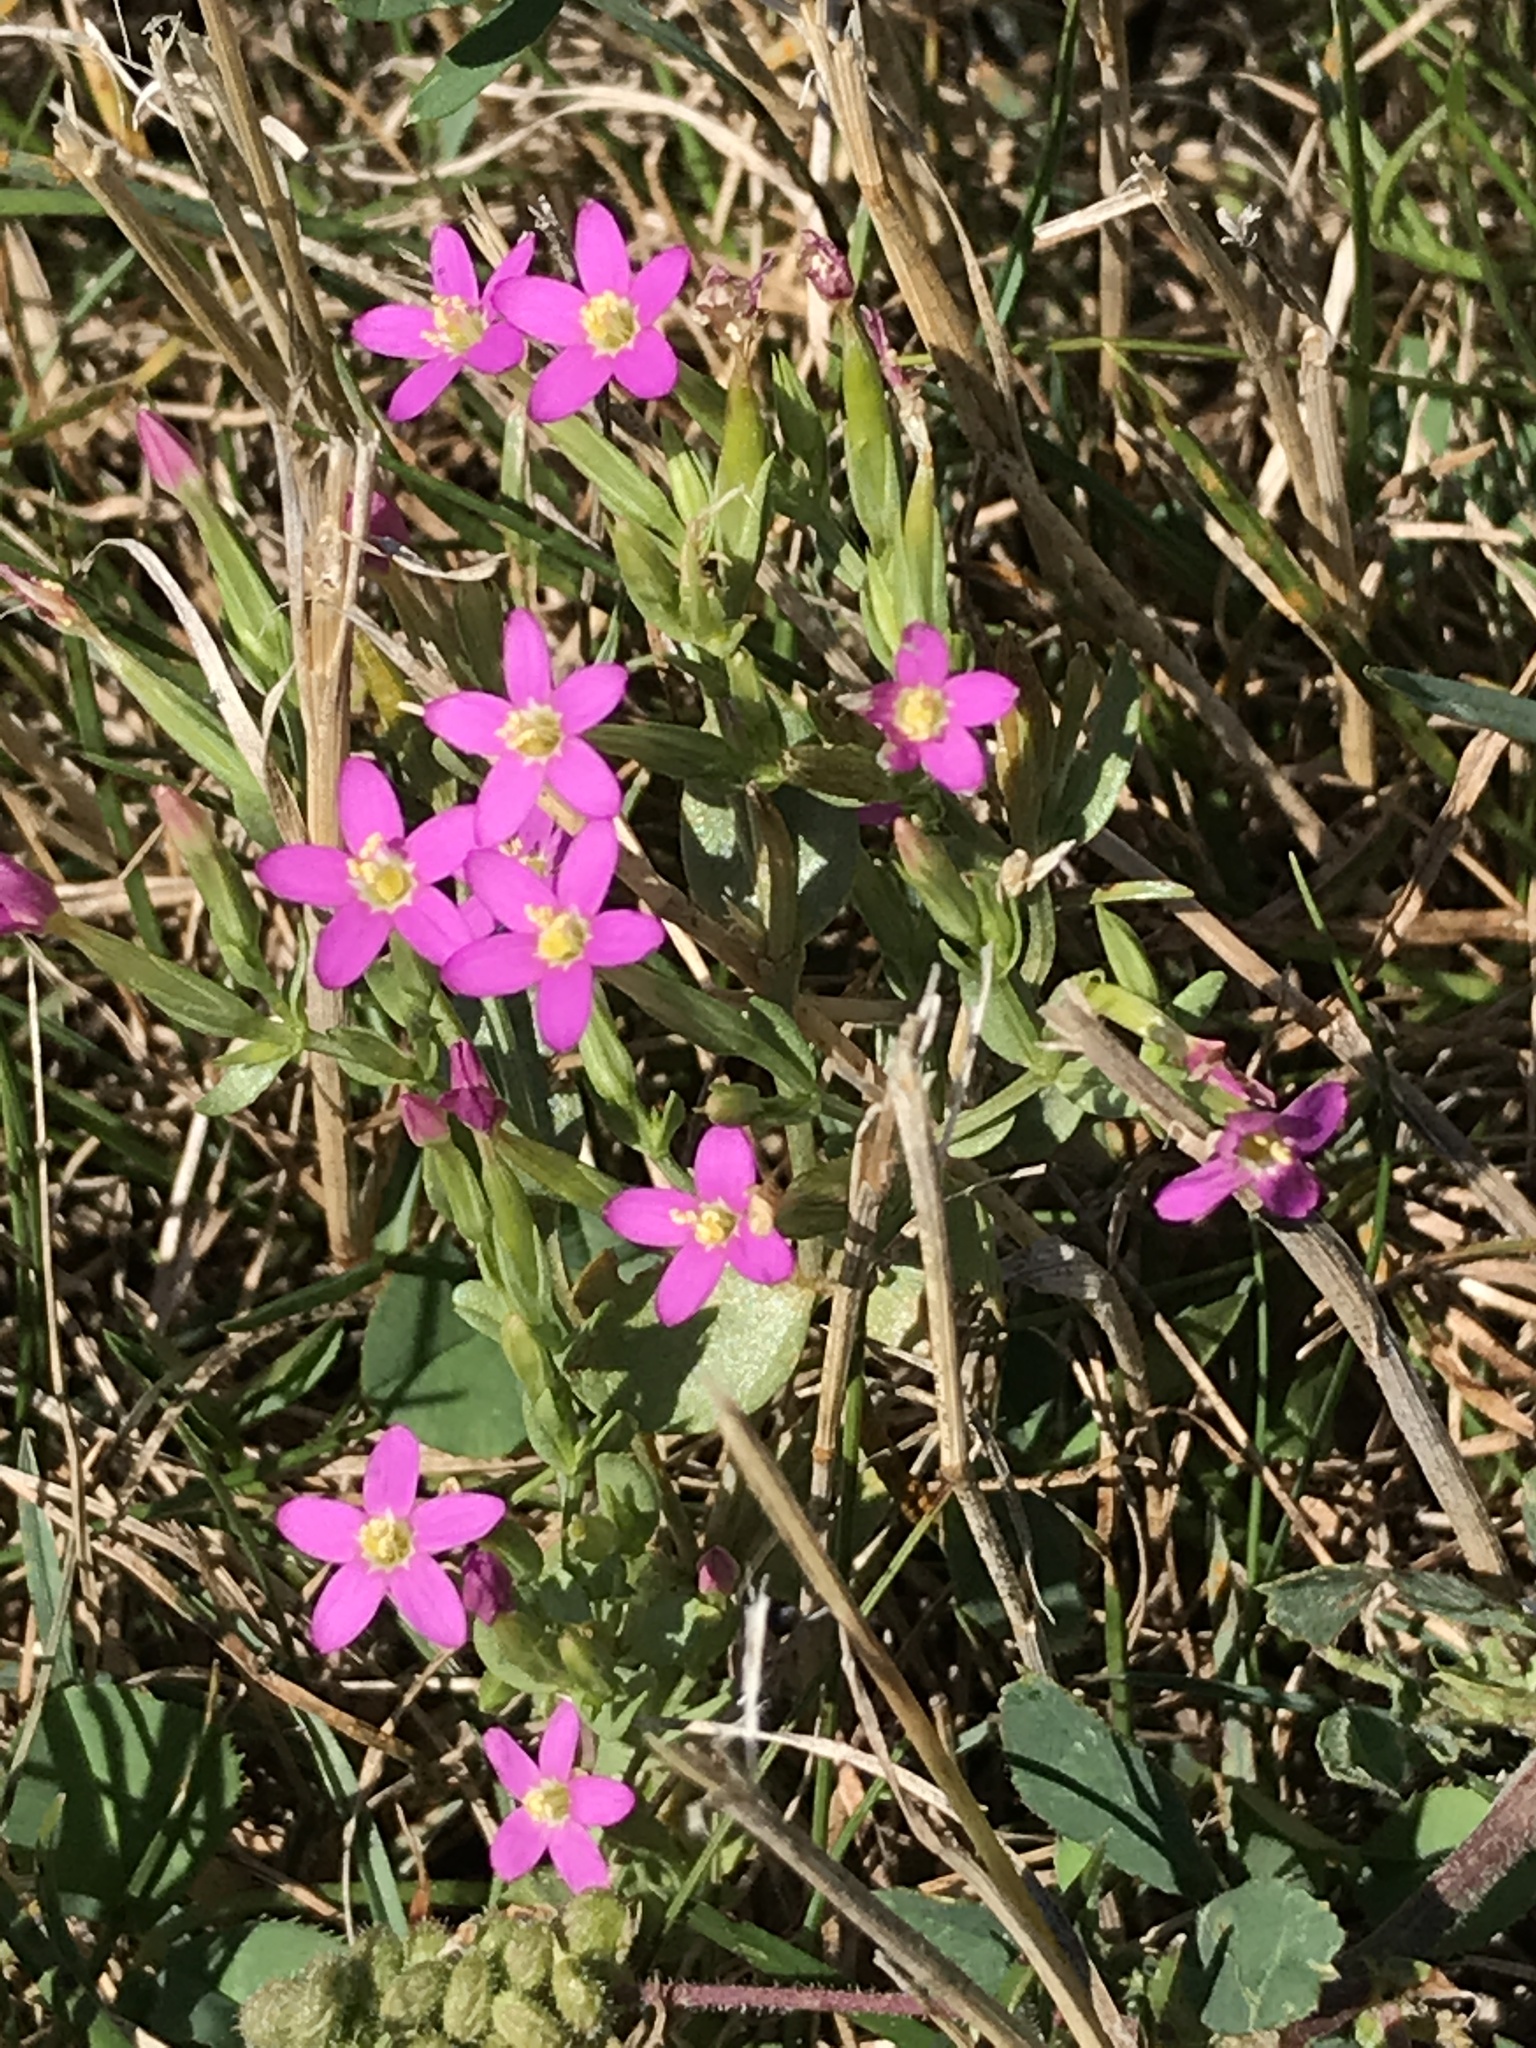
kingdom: Plantae
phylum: Tracheophyta
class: Magnoliopsida
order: Gentianales
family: Gentianaceae
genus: Centaurium
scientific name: Centaurium pulchellum
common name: Lesser centaury
